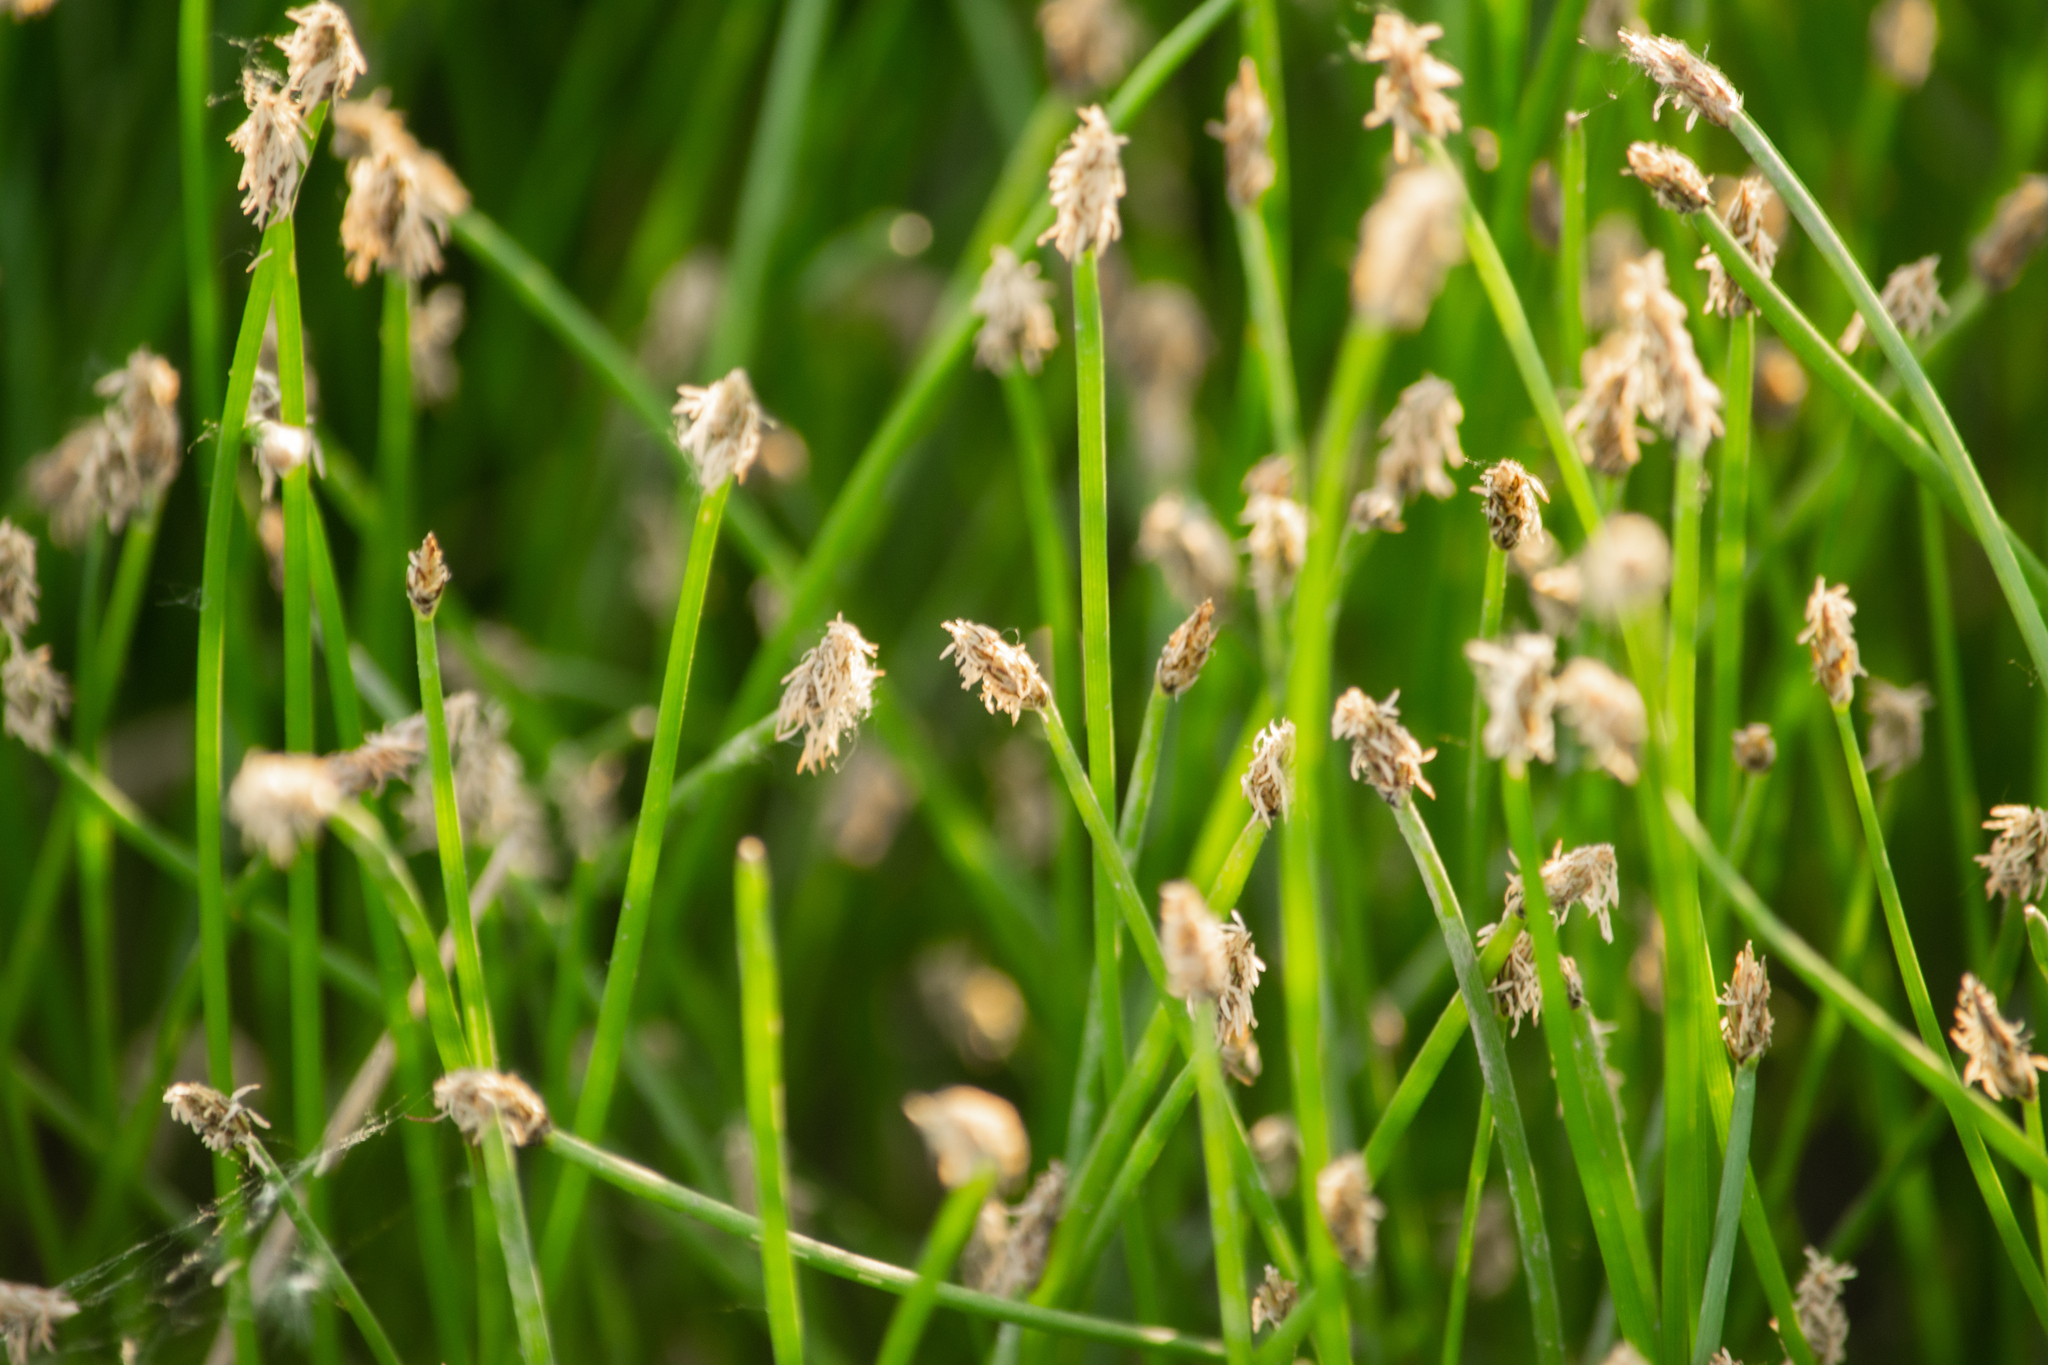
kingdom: Plantae
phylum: Tracheophyta
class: Liliopsida
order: Poales
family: Cyperaceae
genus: Eleocharis
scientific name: Eleocharis palustris
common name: Common spike-rush
